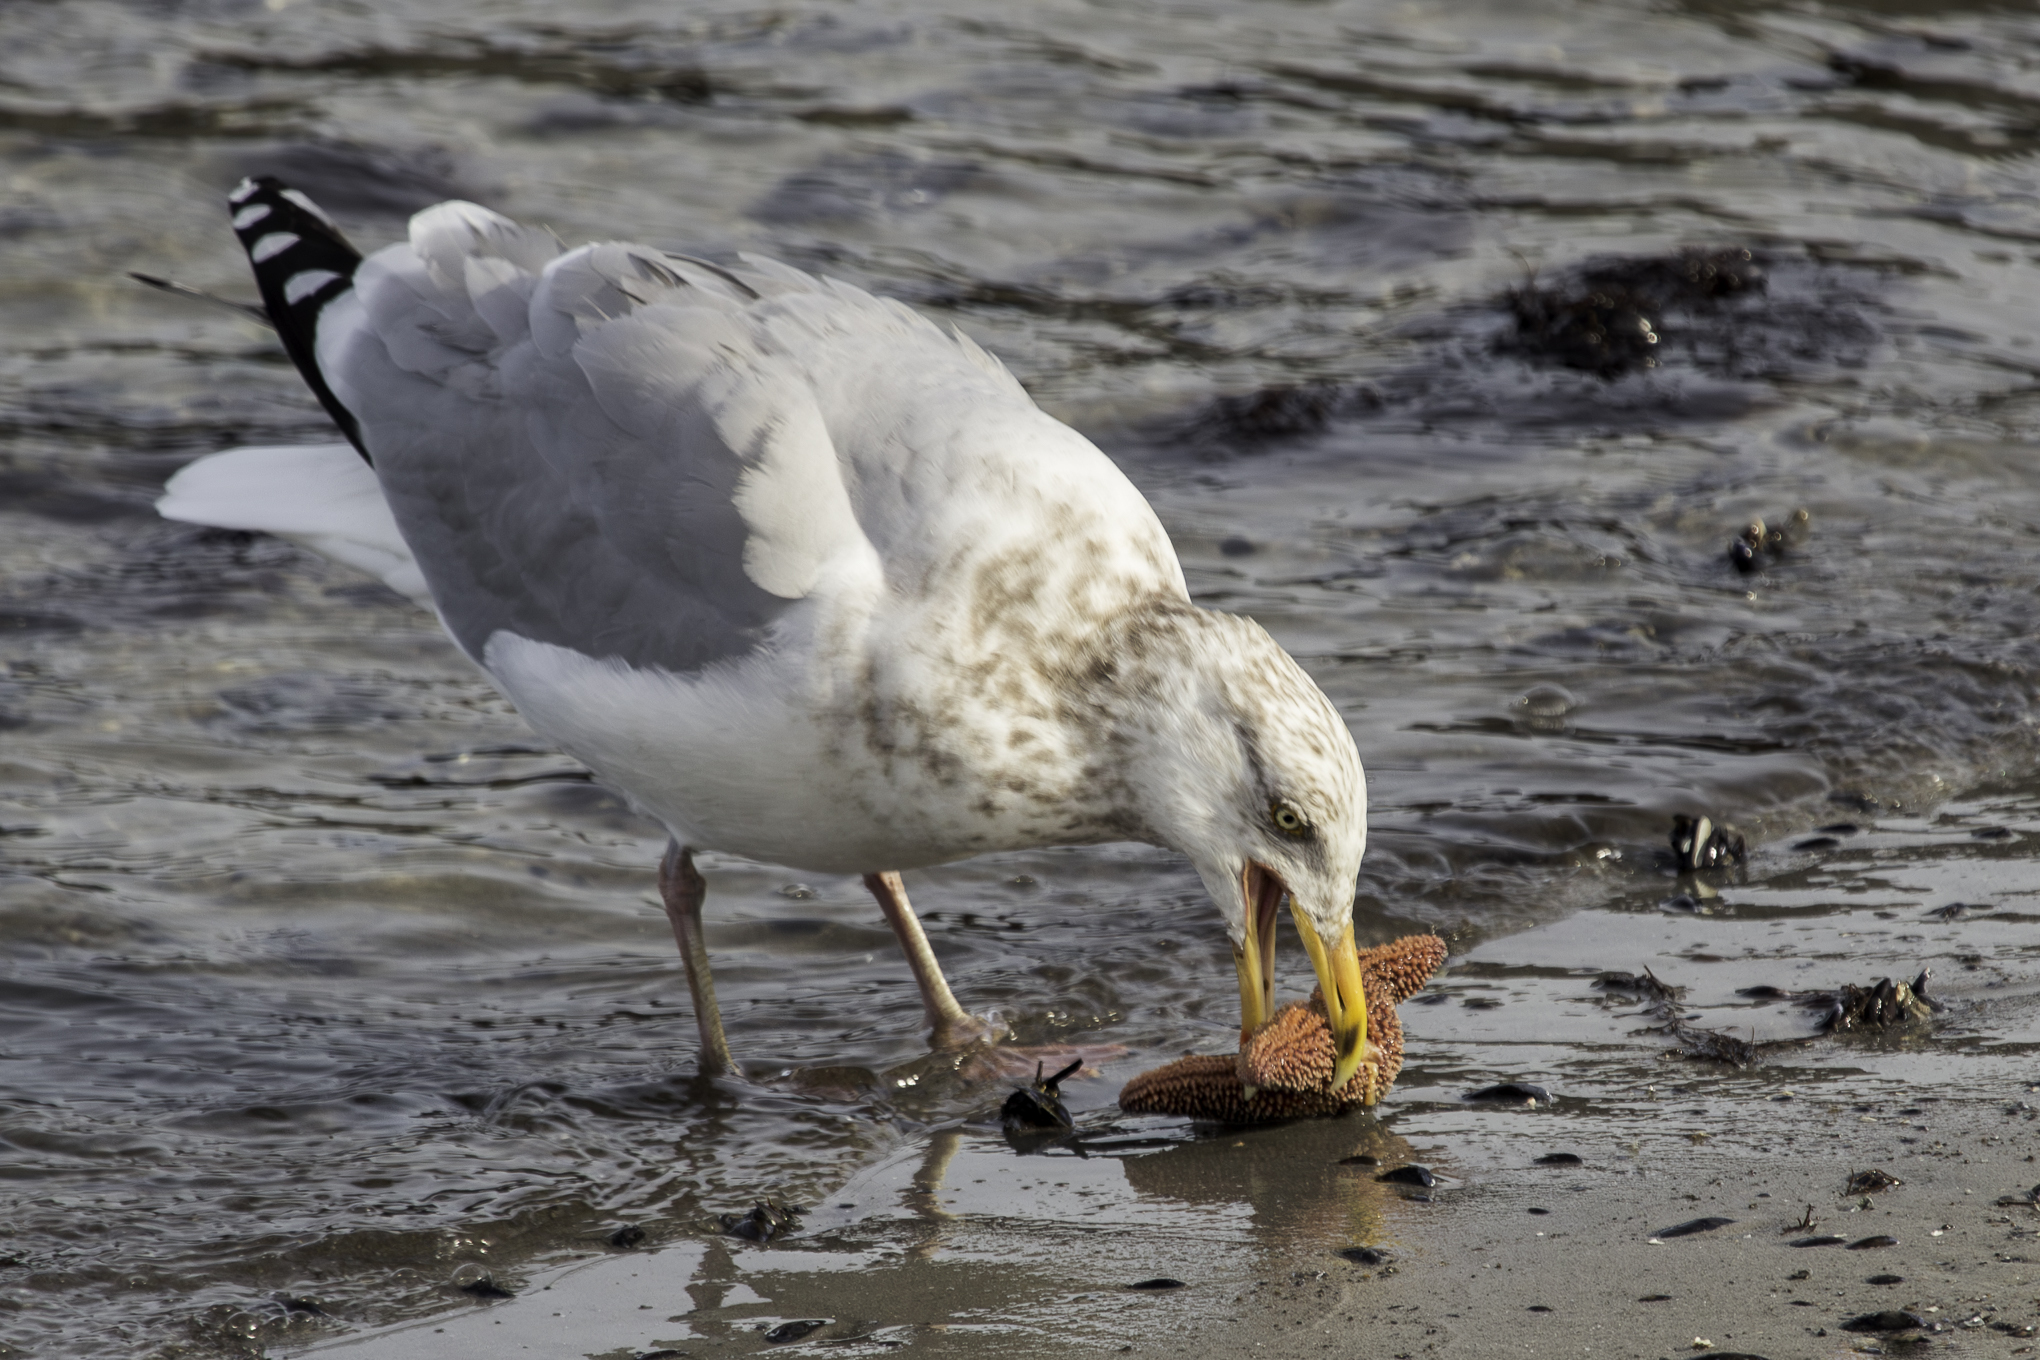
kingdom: Animalia
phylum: Chordata
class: Aves
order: Charadriiformes
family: Laridae
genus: Larus
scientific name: Larus argentatus
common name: Herring gull
